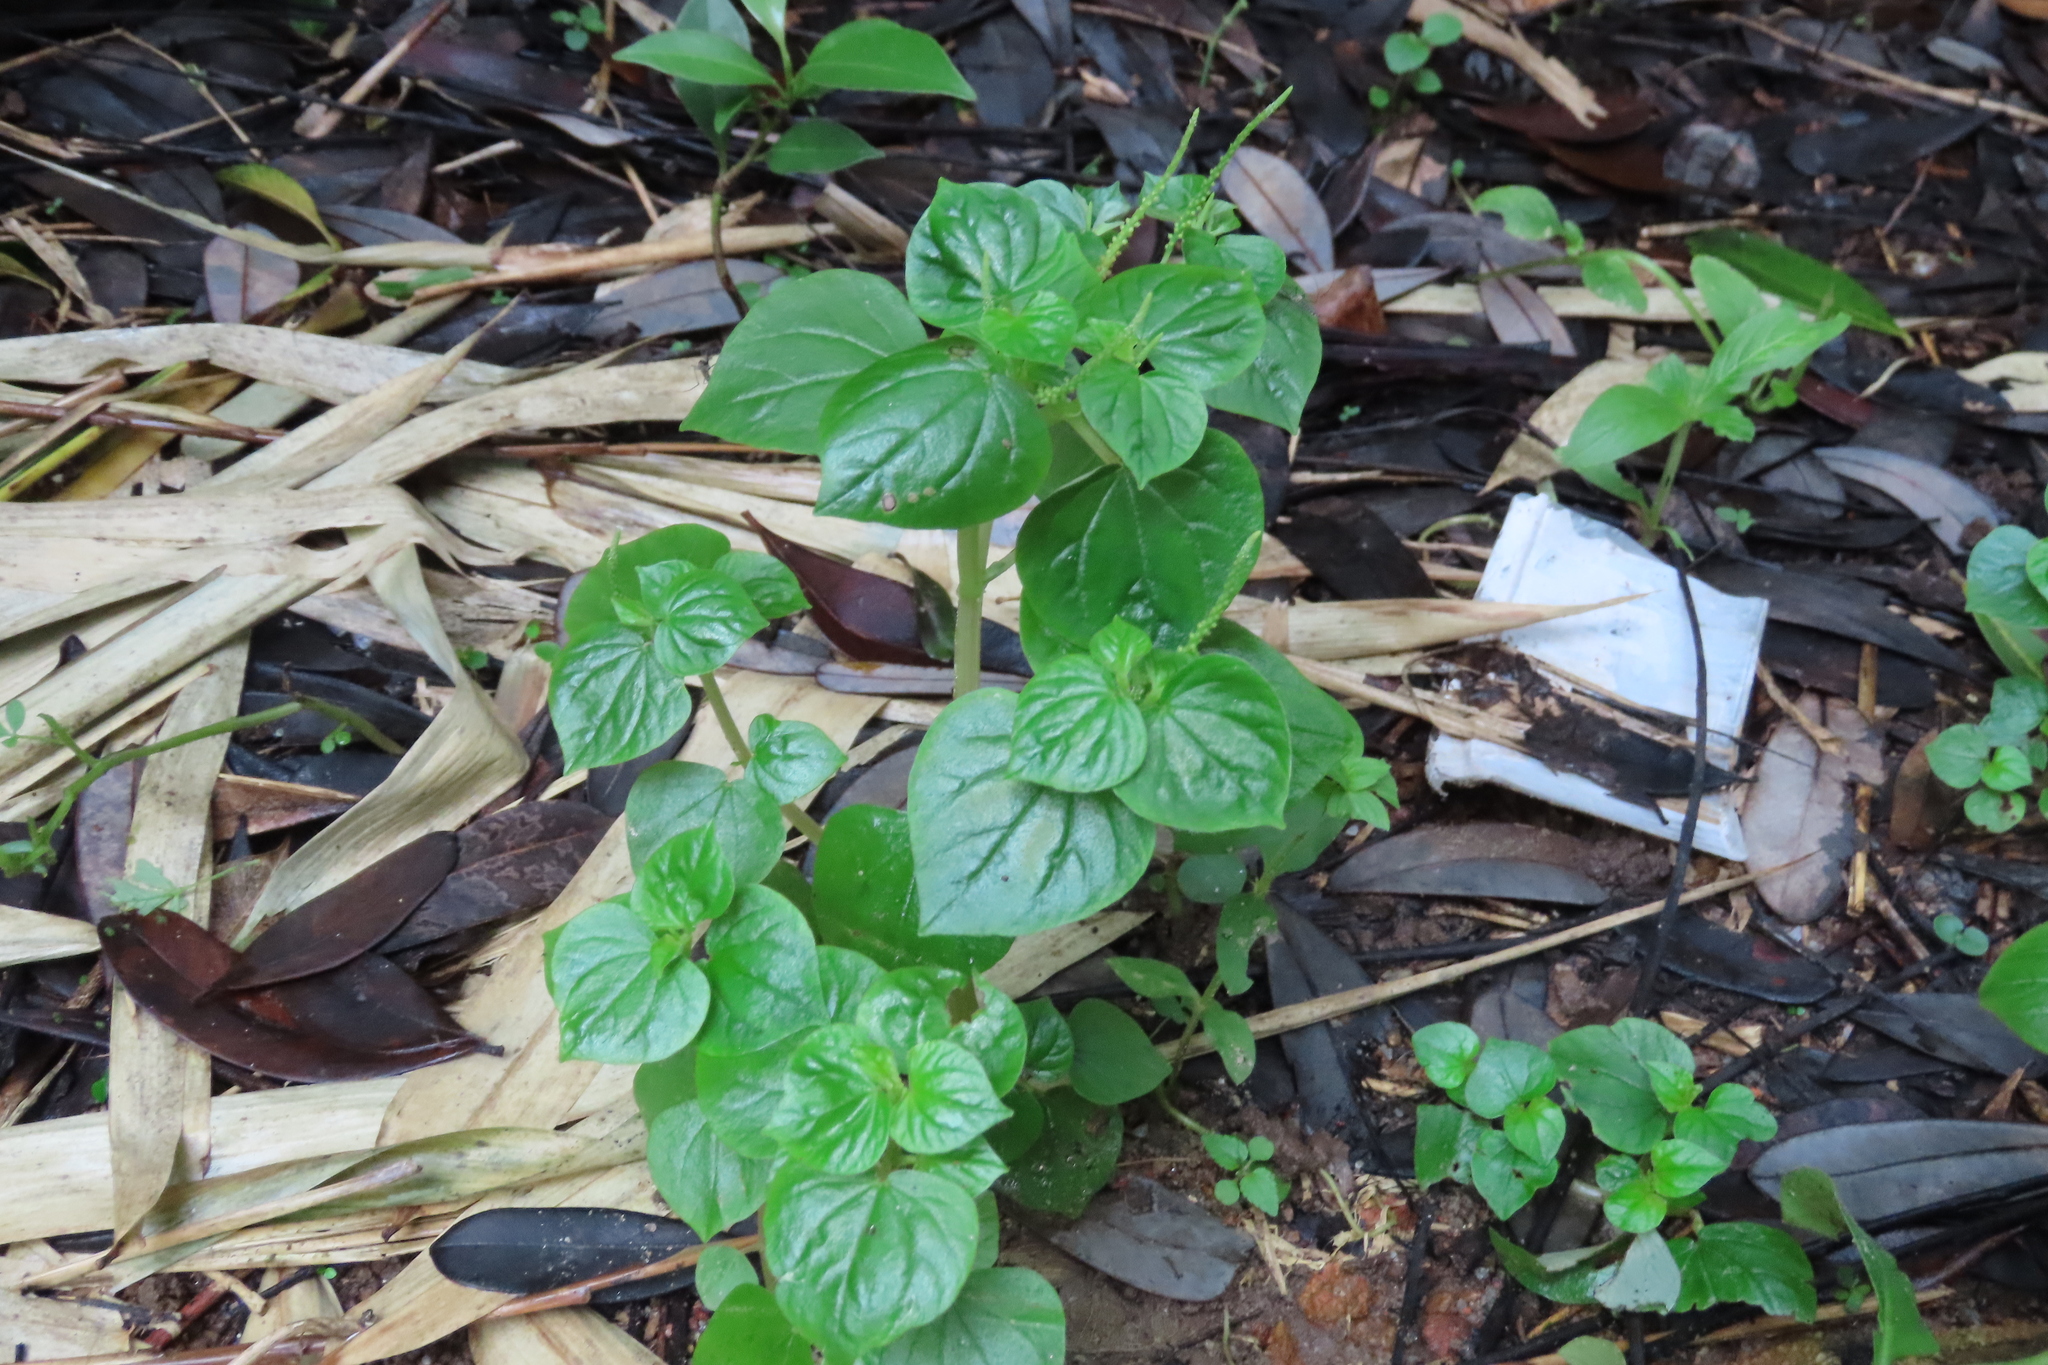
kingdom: Plantae
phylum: Tracheophyta
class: Magnoliopsida
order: Piperales
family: Piperaceae
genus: Peperomia
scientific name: Peperomia pellucida
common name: Man to man
